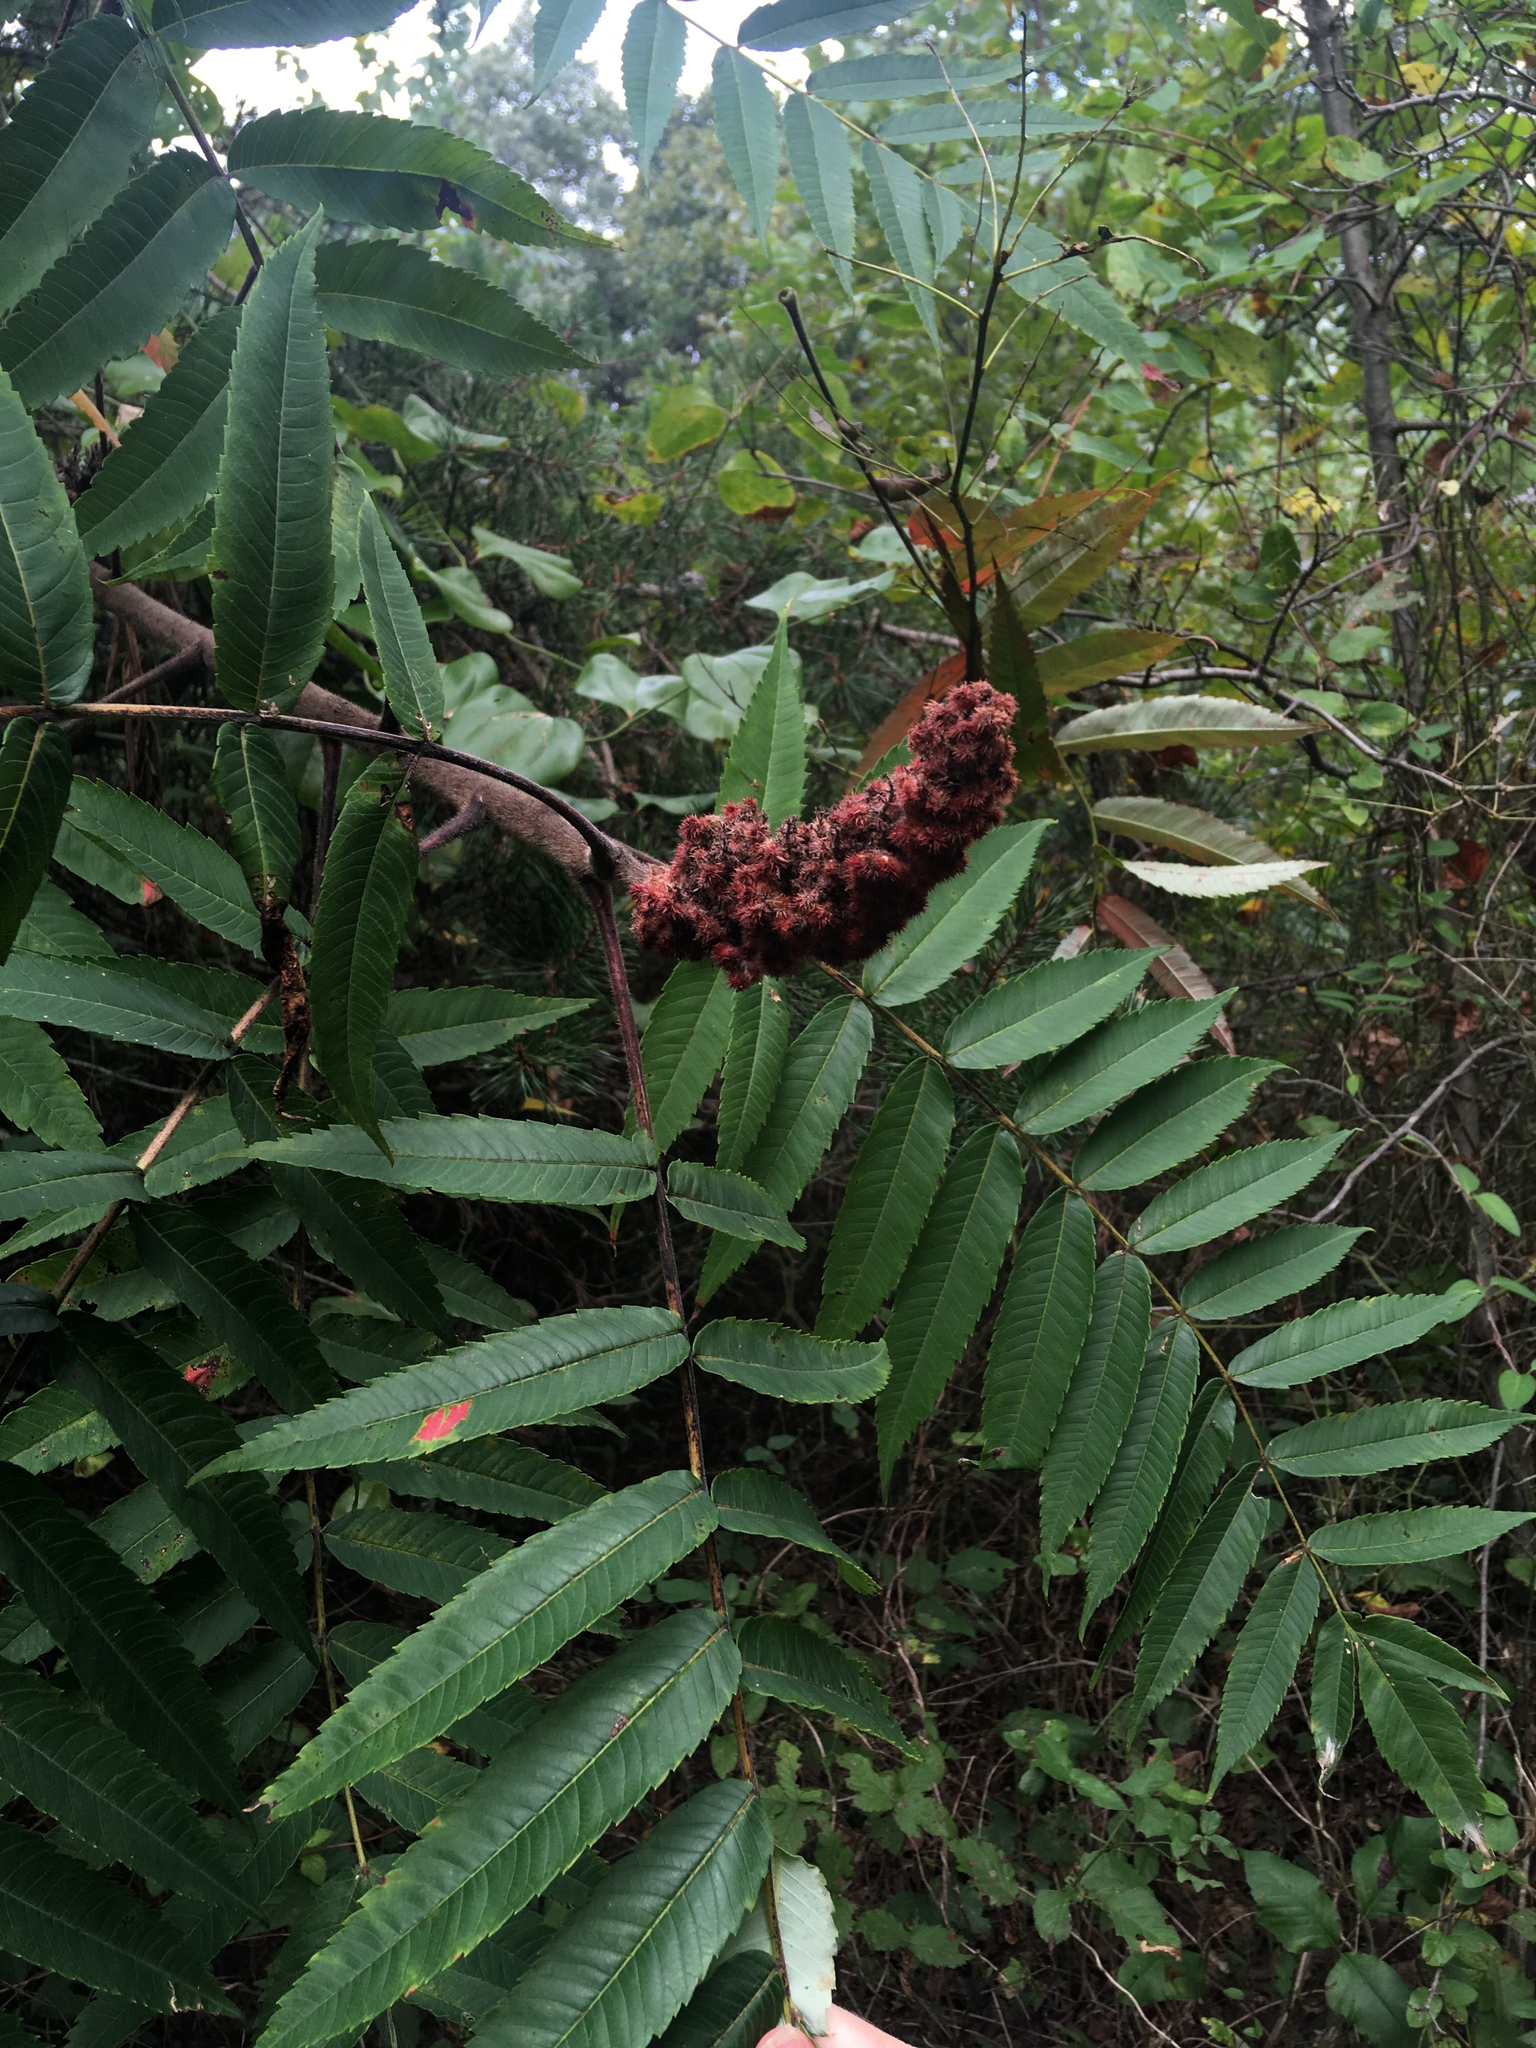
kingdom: Plantae
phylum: Tracheophyta
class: Magnoliopsida
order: Sapindales
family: Anacardiaceae
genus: Rhus
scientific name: Rhus typhina
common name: Staghorn sumac
